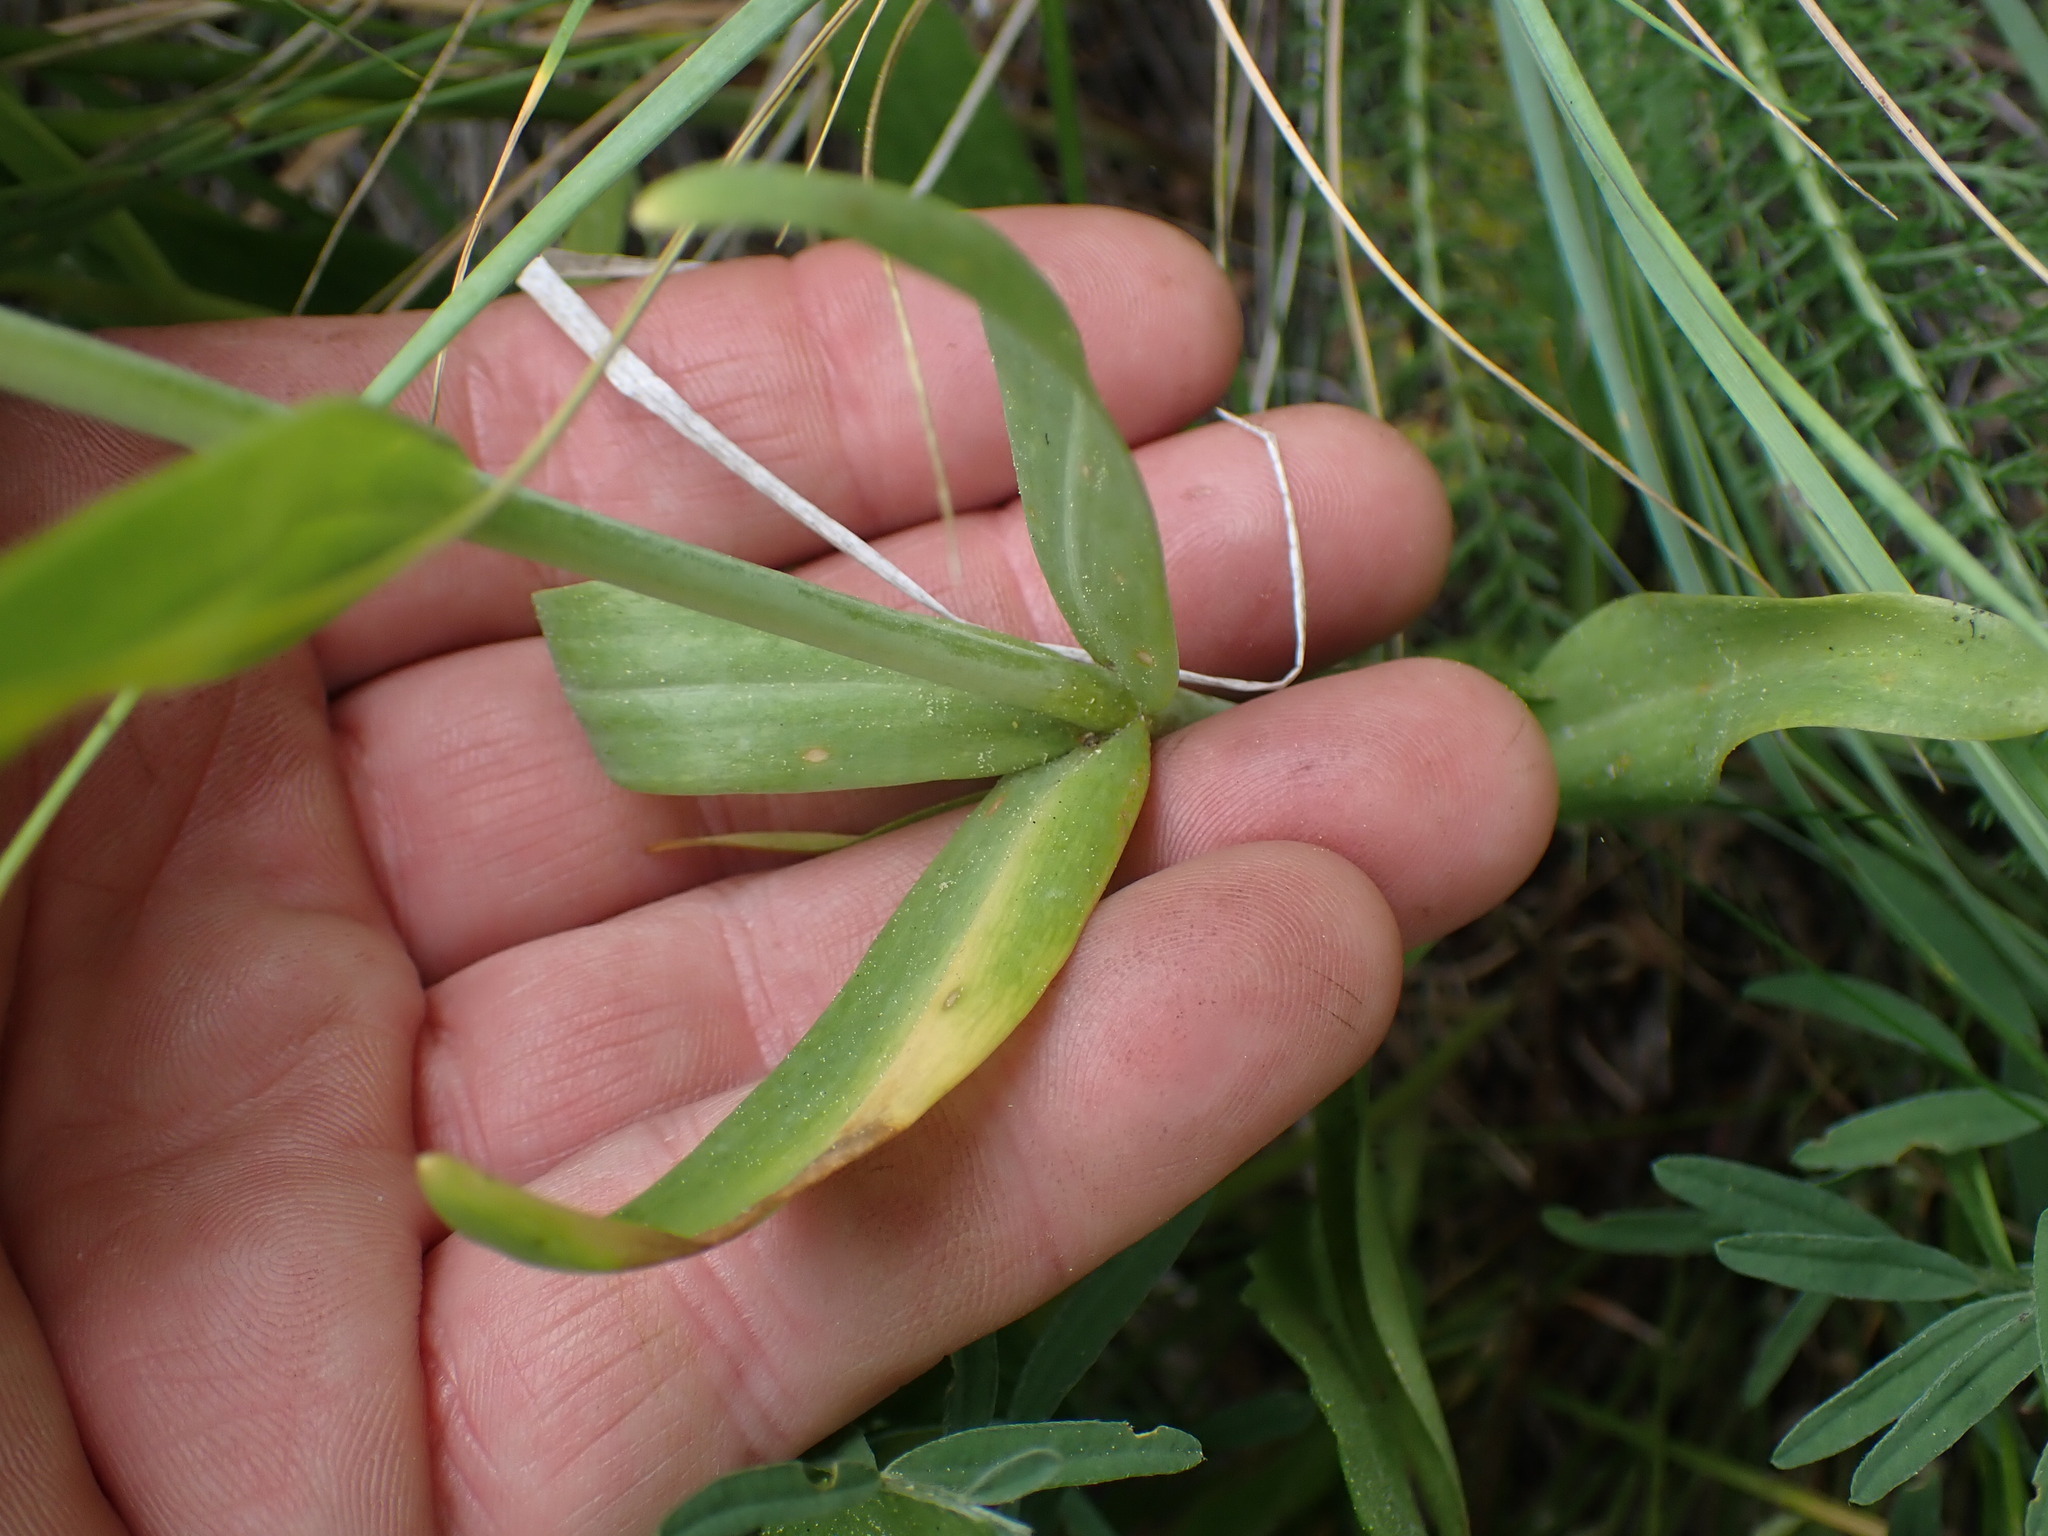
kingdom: Plantae
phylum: Tracheophyta
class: Liliopsida
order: Liliales
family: Liliaceae
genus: Fritillaria
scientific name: Fritillaria affinis
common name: Ojai fritillary
